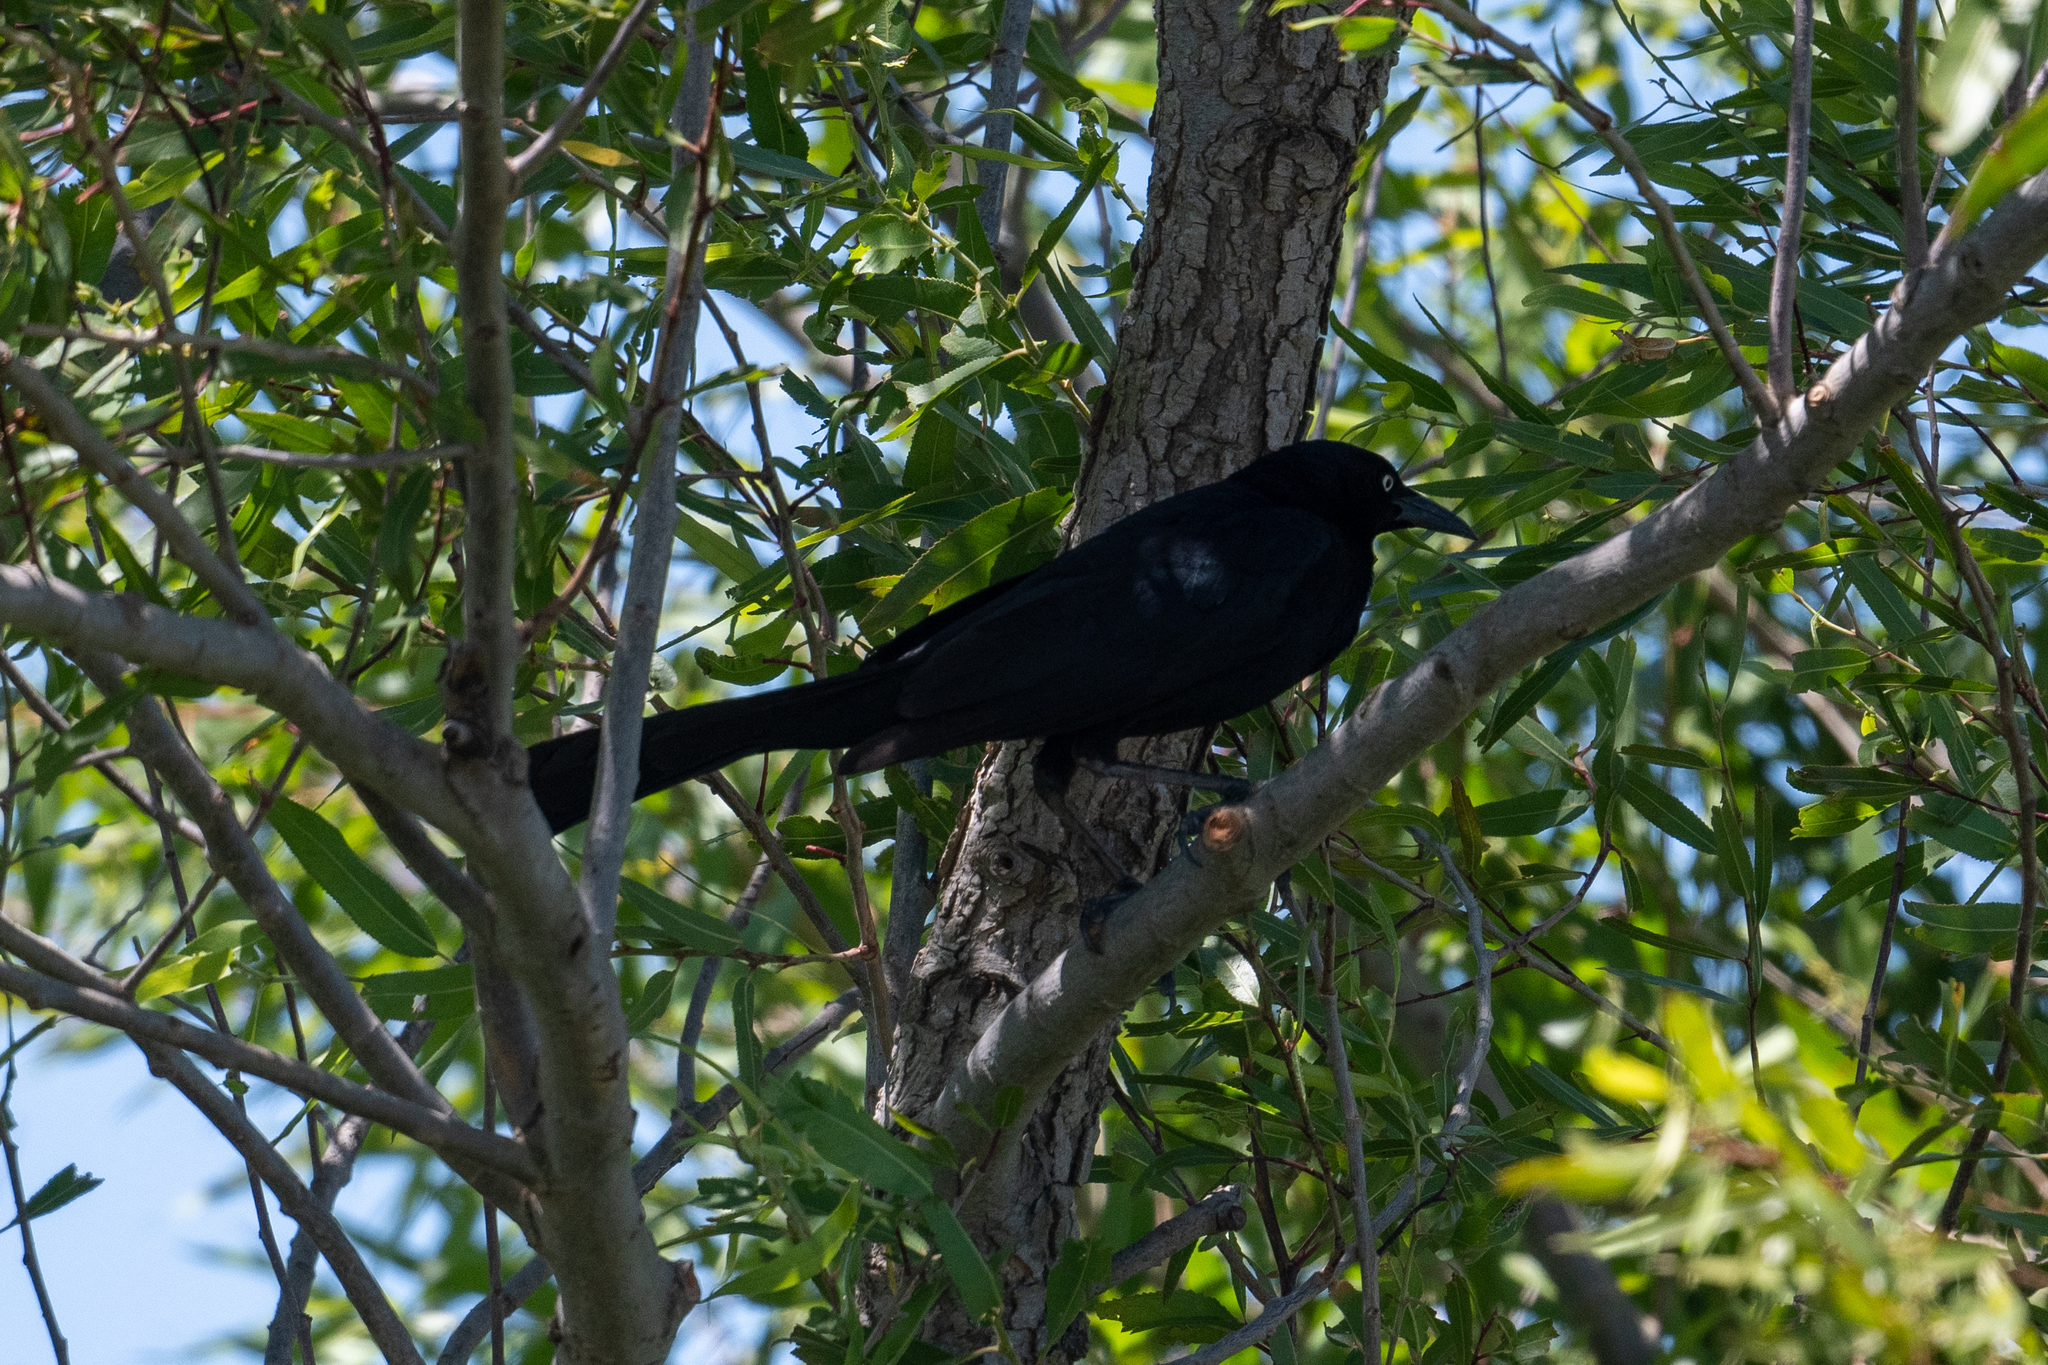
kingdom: Animalia
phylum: Chordata
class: Aves
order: Passeriformes
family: Icteridae
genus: Quiscalus
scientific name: Quiscalus mexicanus
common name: Great-tailed grackle
